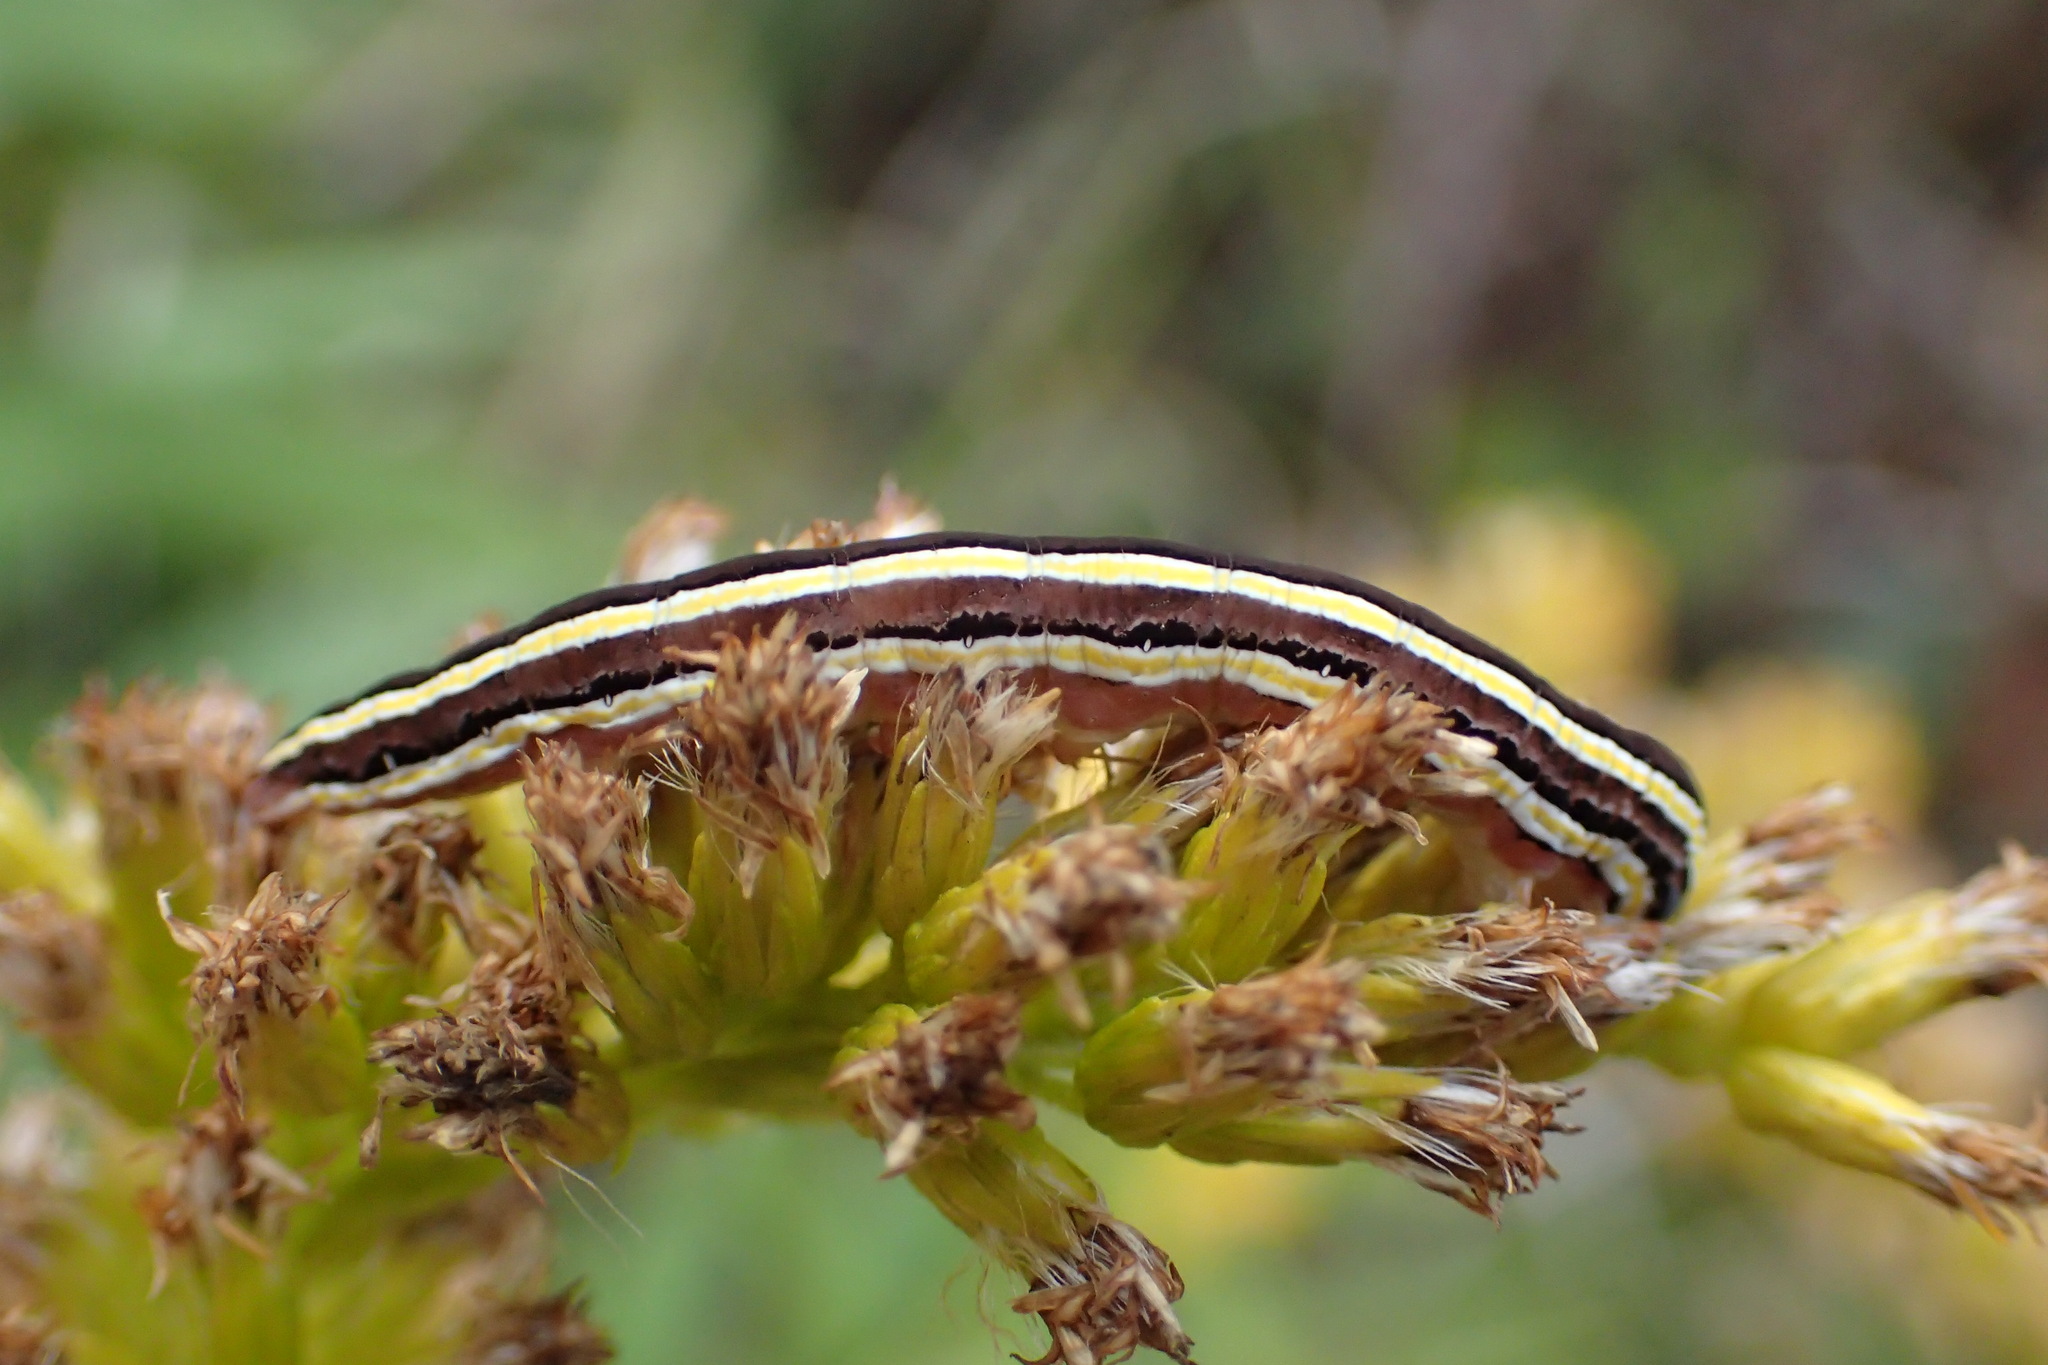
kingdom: Animalia
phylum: Arthropoda
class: Insecta
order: Lepidoptera
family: Noctuidae
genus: Trichordestra
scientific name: Trichordestra legitima
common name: Striped garden caterpillar
